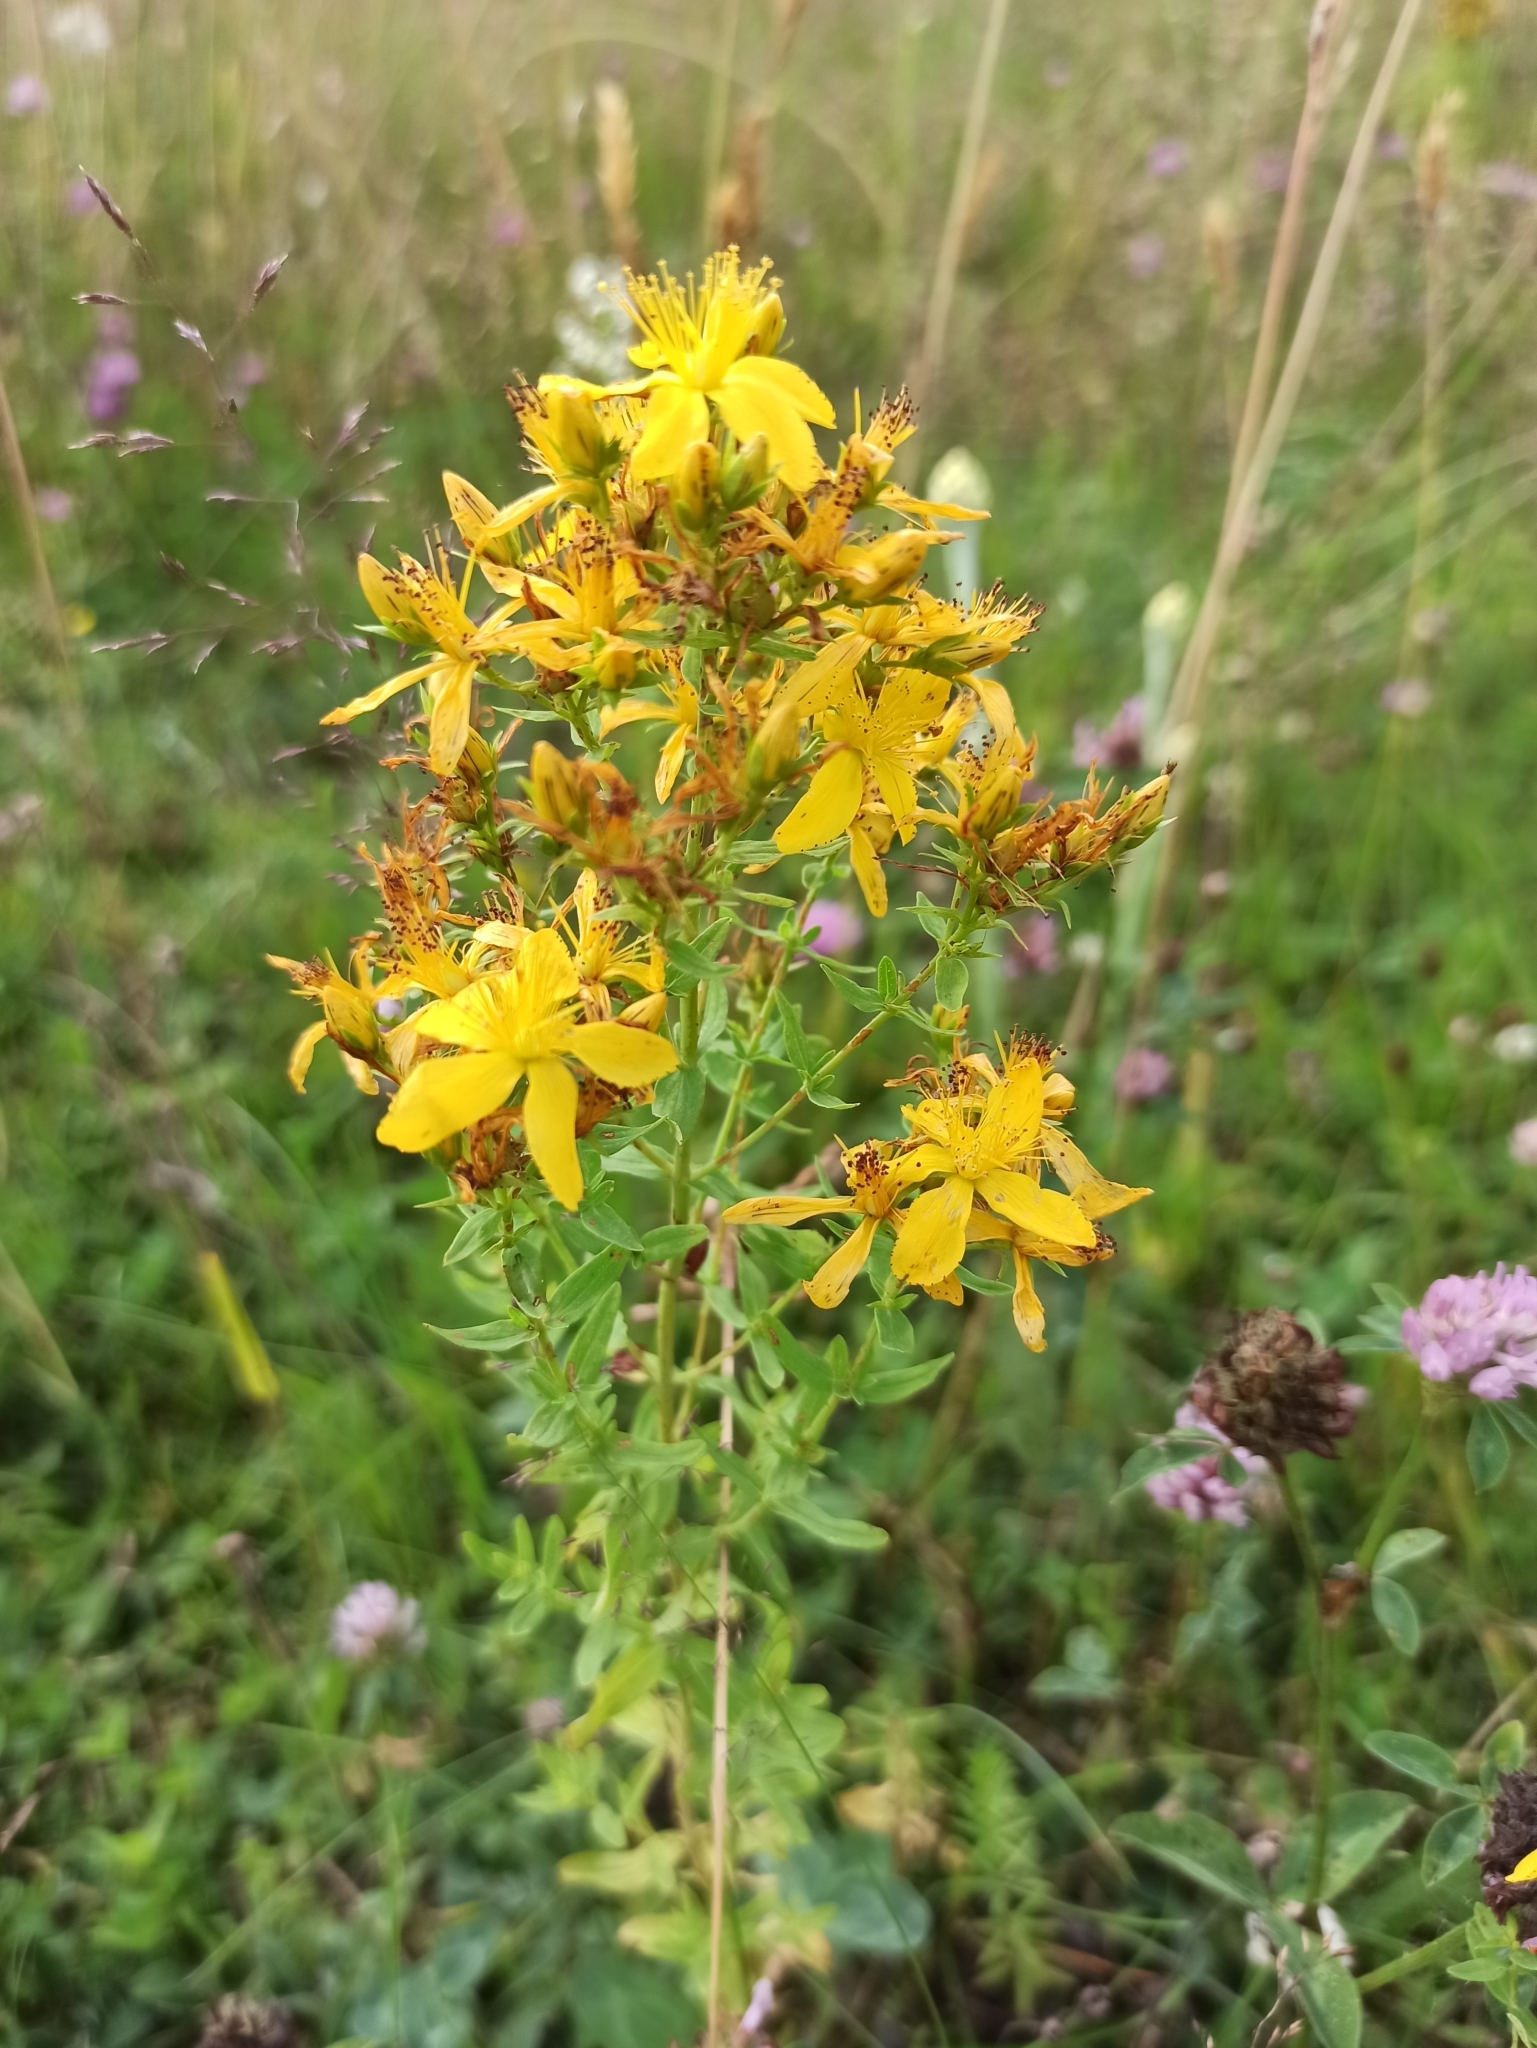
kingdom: Plantae
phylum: Tracheophyta
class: Magnoliopsida
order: Malpighiales
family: Hypericaceae
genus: Hypericum
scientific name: Hypericum perforatum
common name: Common st. johnswort
